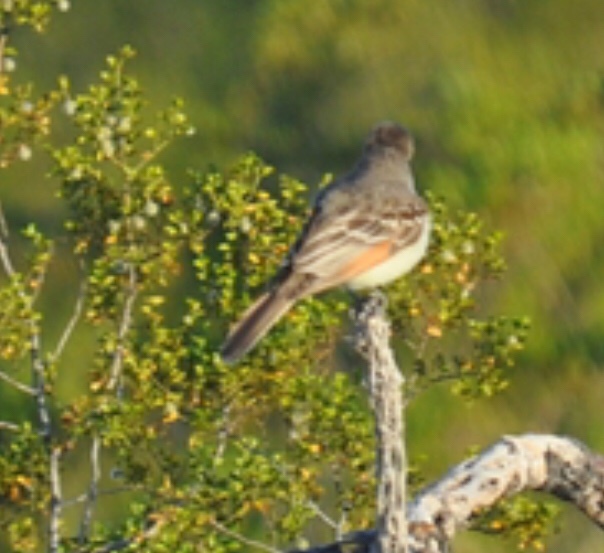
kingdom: Animalia
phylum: Chordata
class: Aves
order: Passeriformes
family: Tyrannidae
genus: Myiarchus
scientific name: Myiarchus cinerascens
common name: Ash-throated flycatcher
